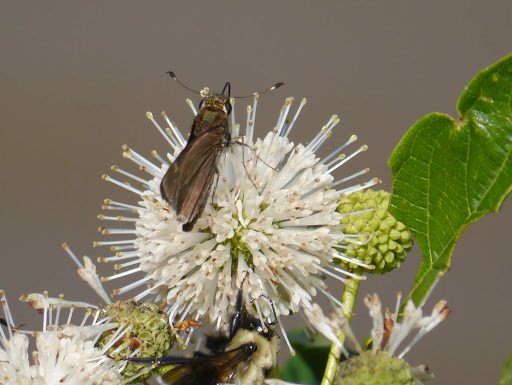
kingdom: Animalia
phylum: Arthropoda
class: Insecta
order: Lepidoptera
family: Hesperiidae
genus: Vernia
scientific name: Vernia verna
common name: Little glassywing
